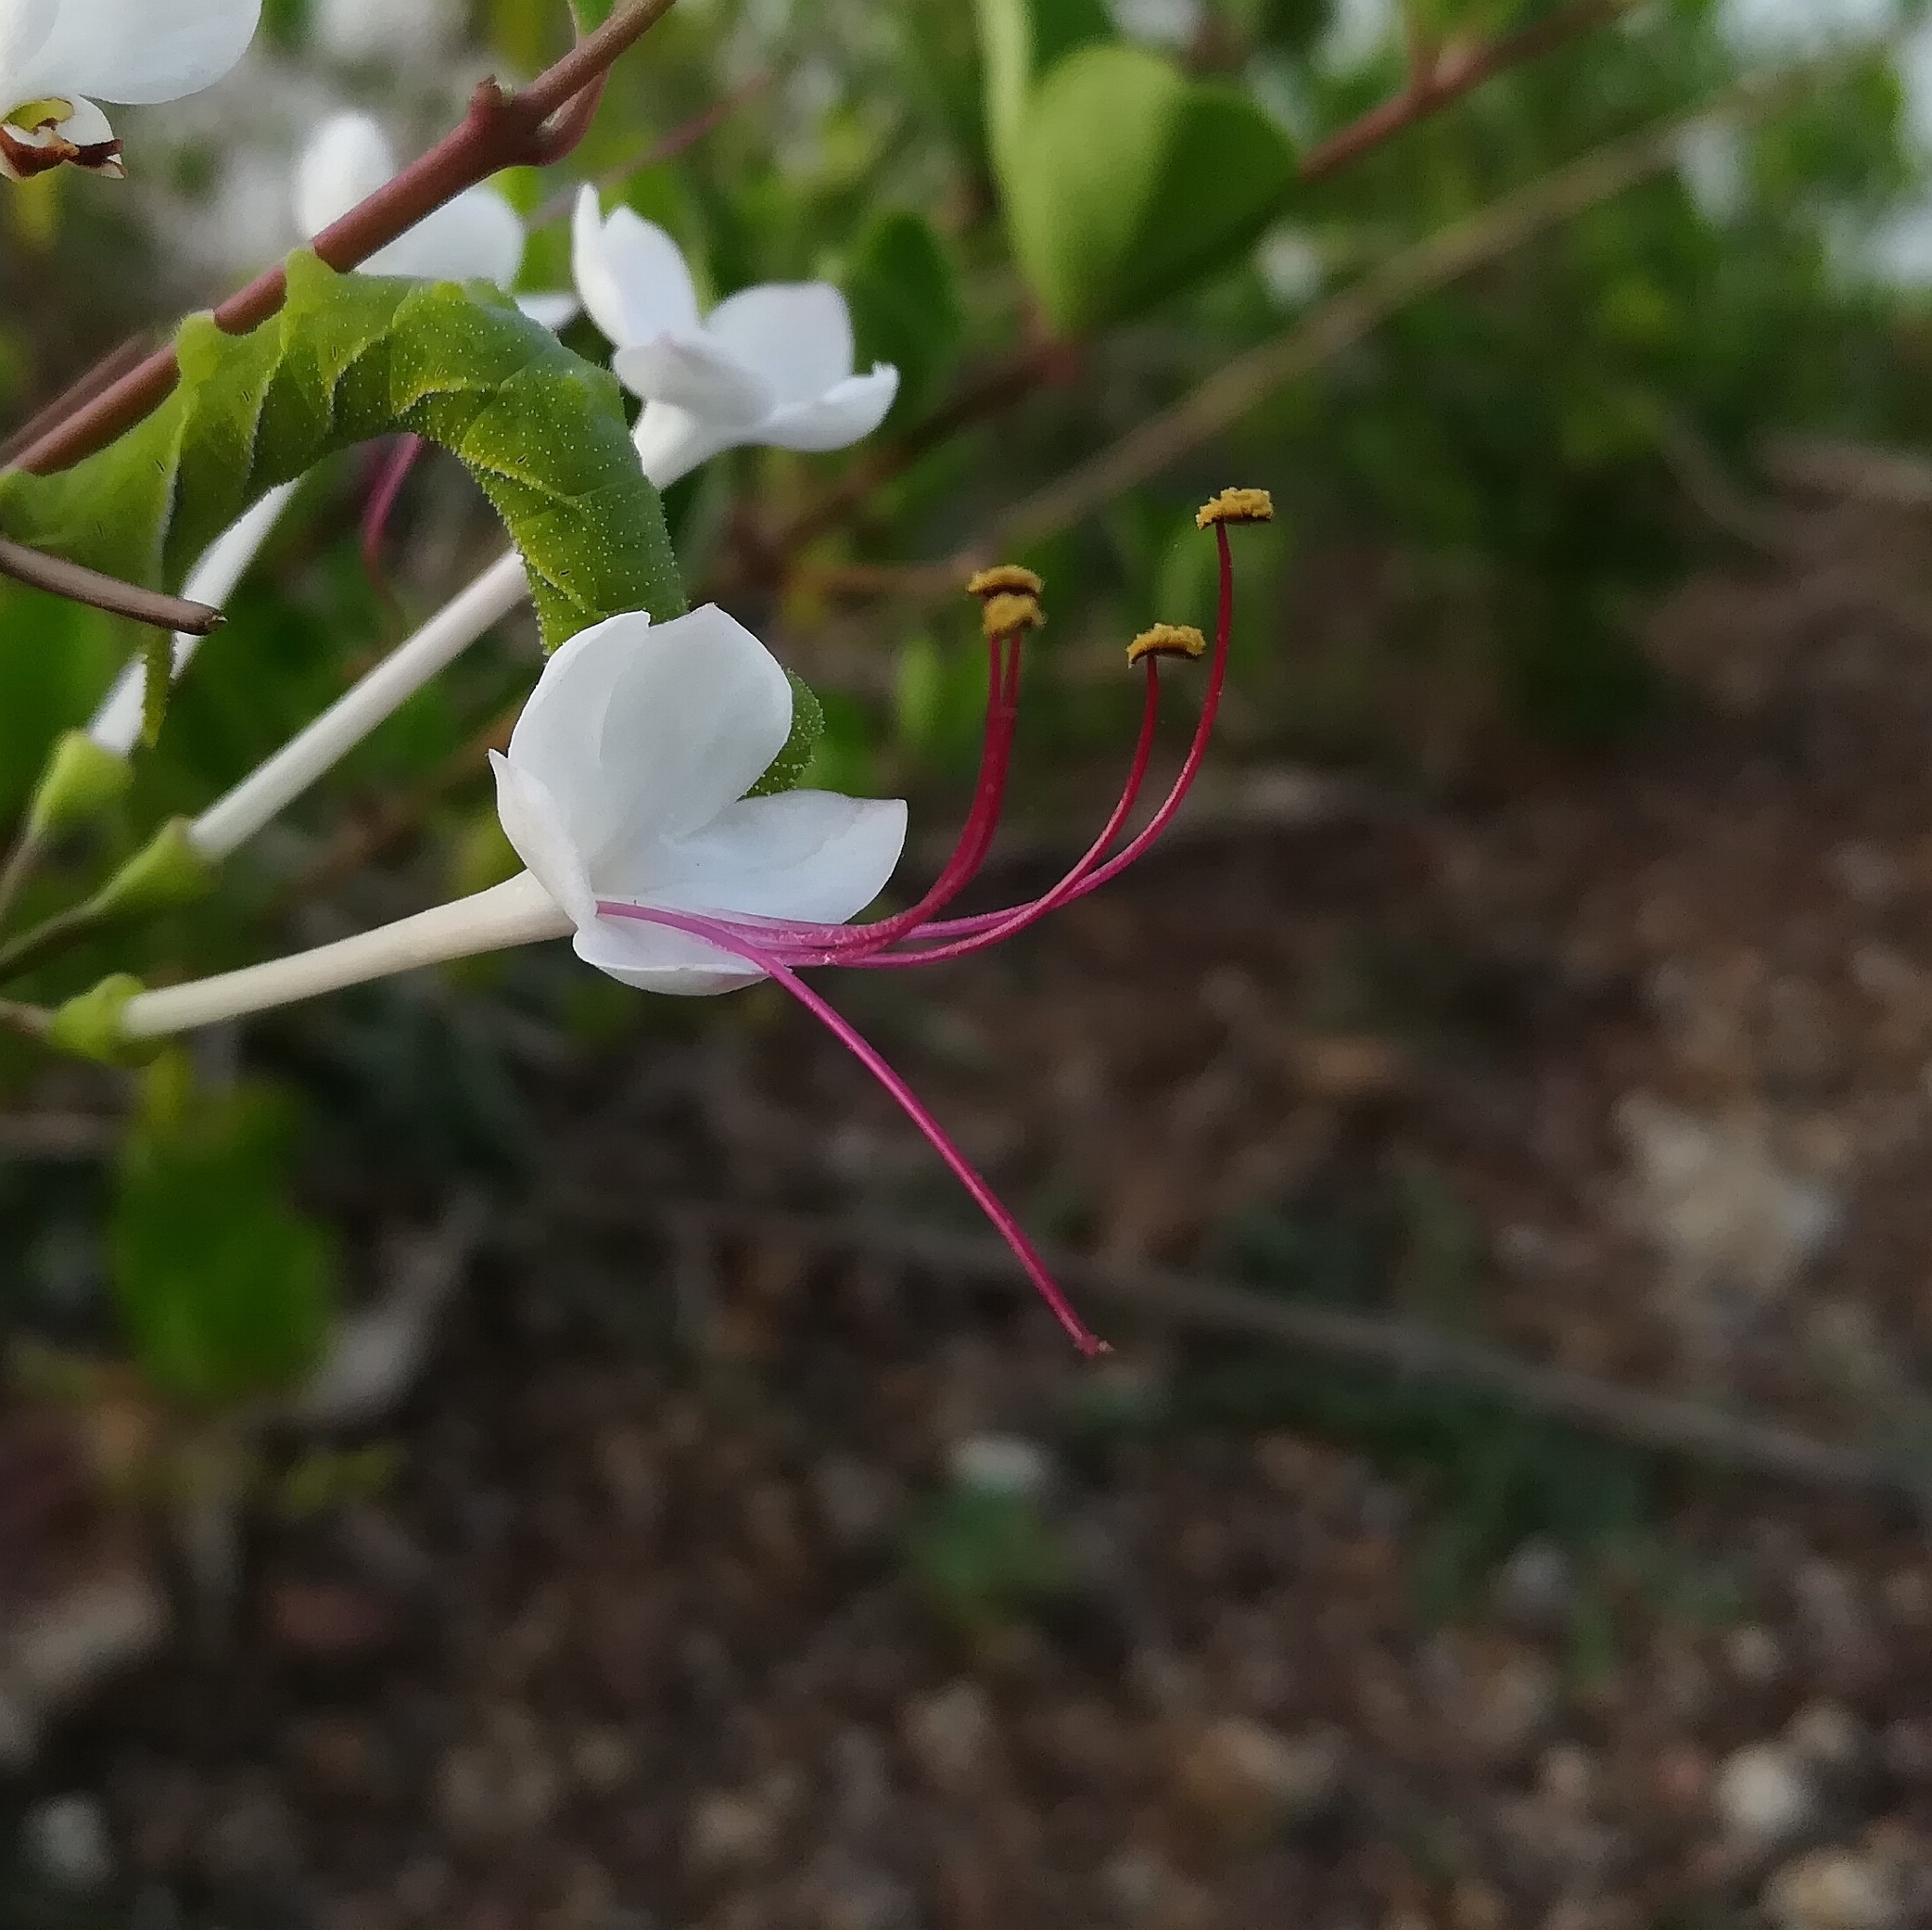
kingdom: Plantae
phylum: Tracheophyta
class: Magnoliopsida
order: Lamiales
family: Lamiaceae
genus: Volkameria
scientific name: Volkameria inermis
